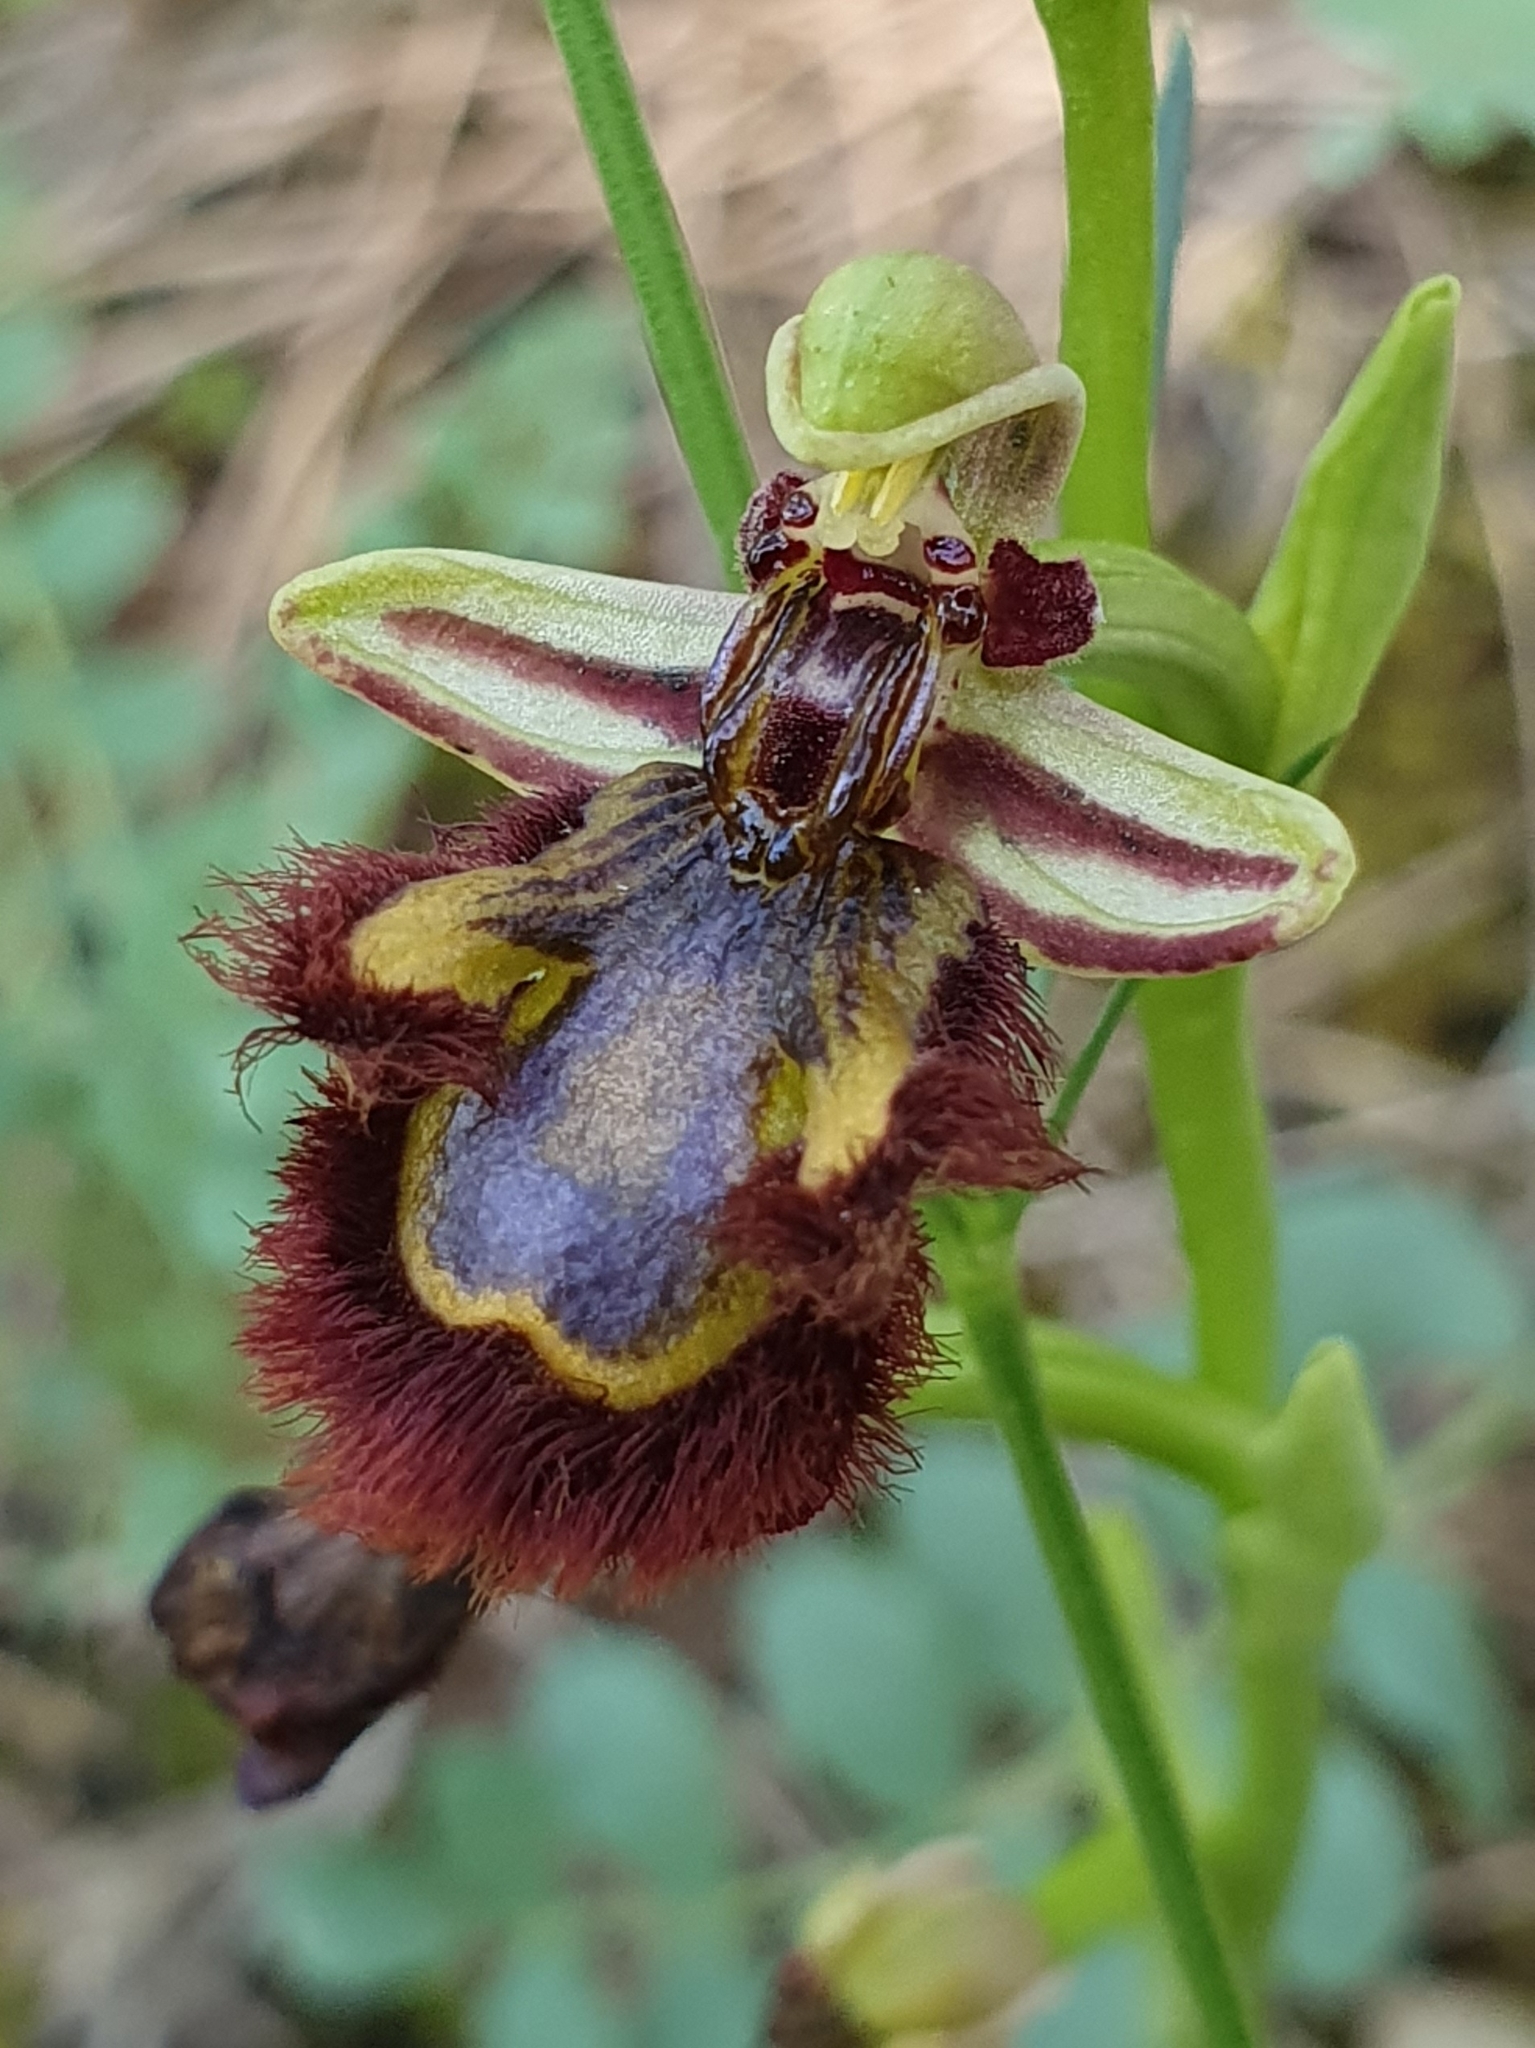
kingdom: Plantae
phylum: Tracheophyta
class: Liliopsida
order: Asparagales
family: Orchidaceae
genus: Ophrys
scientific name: Ophrys speculum
